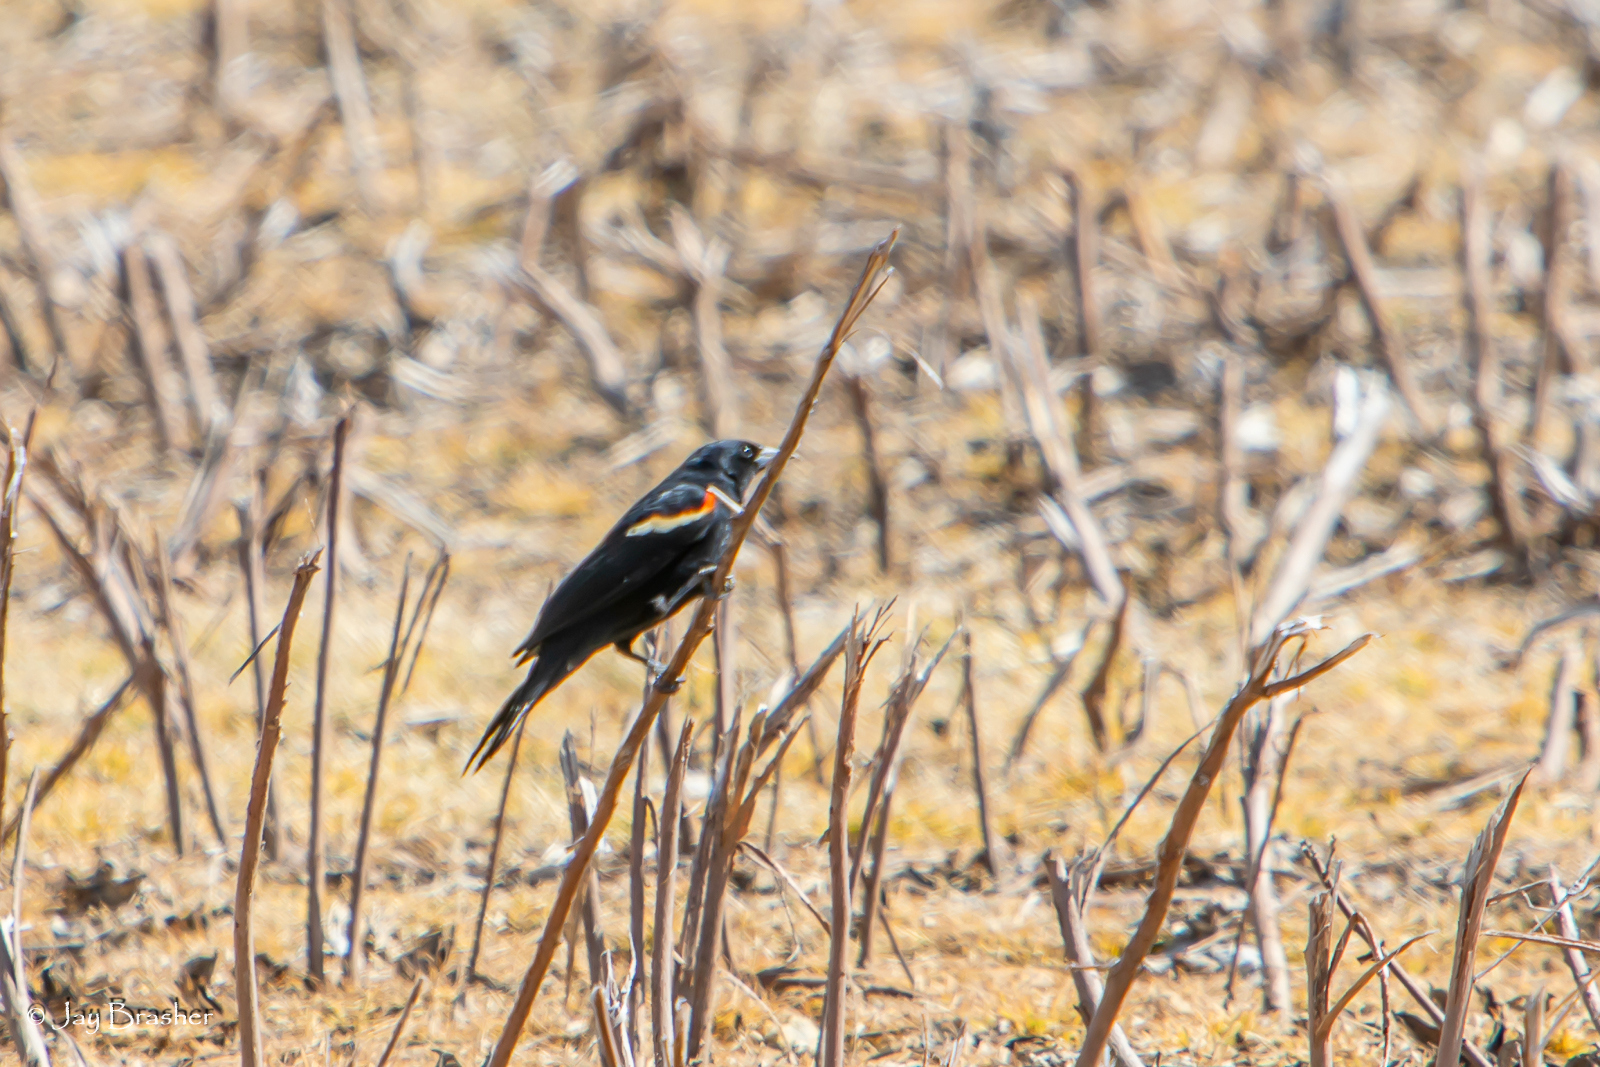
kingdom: Animalia
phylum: Chordata
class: Aves
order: Passeriformes
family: Icteridae
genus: Agelaius
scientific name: Agelaius phoeniceus
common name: Red-winged blackbird
